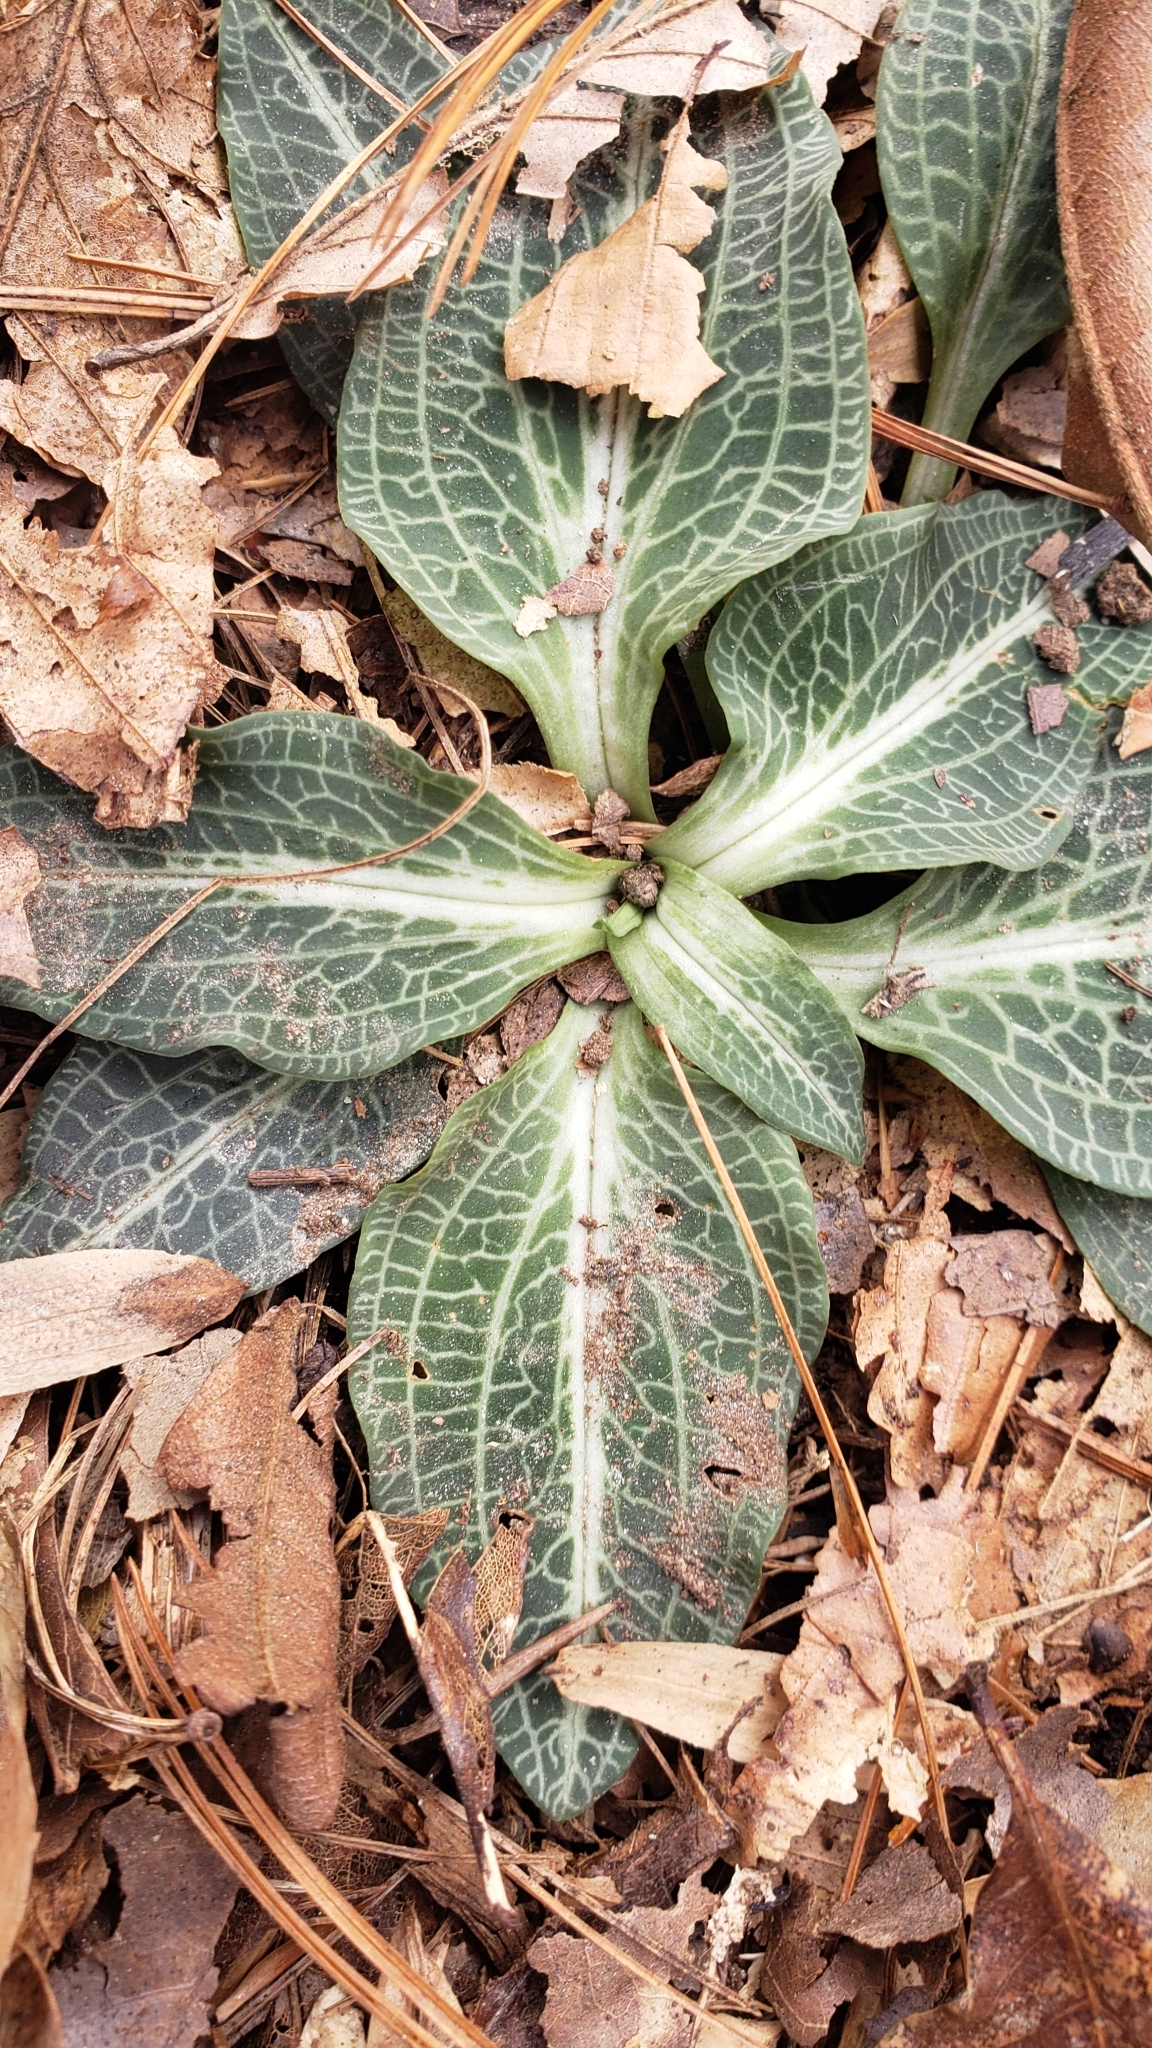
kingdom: Plantae
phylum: Tracheophyta
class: Liliopsida
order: Asparagales
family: Orchidaceae
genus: Goodyera
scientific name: Goodyera pubescens
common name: Downy rattlesnake-plantain
